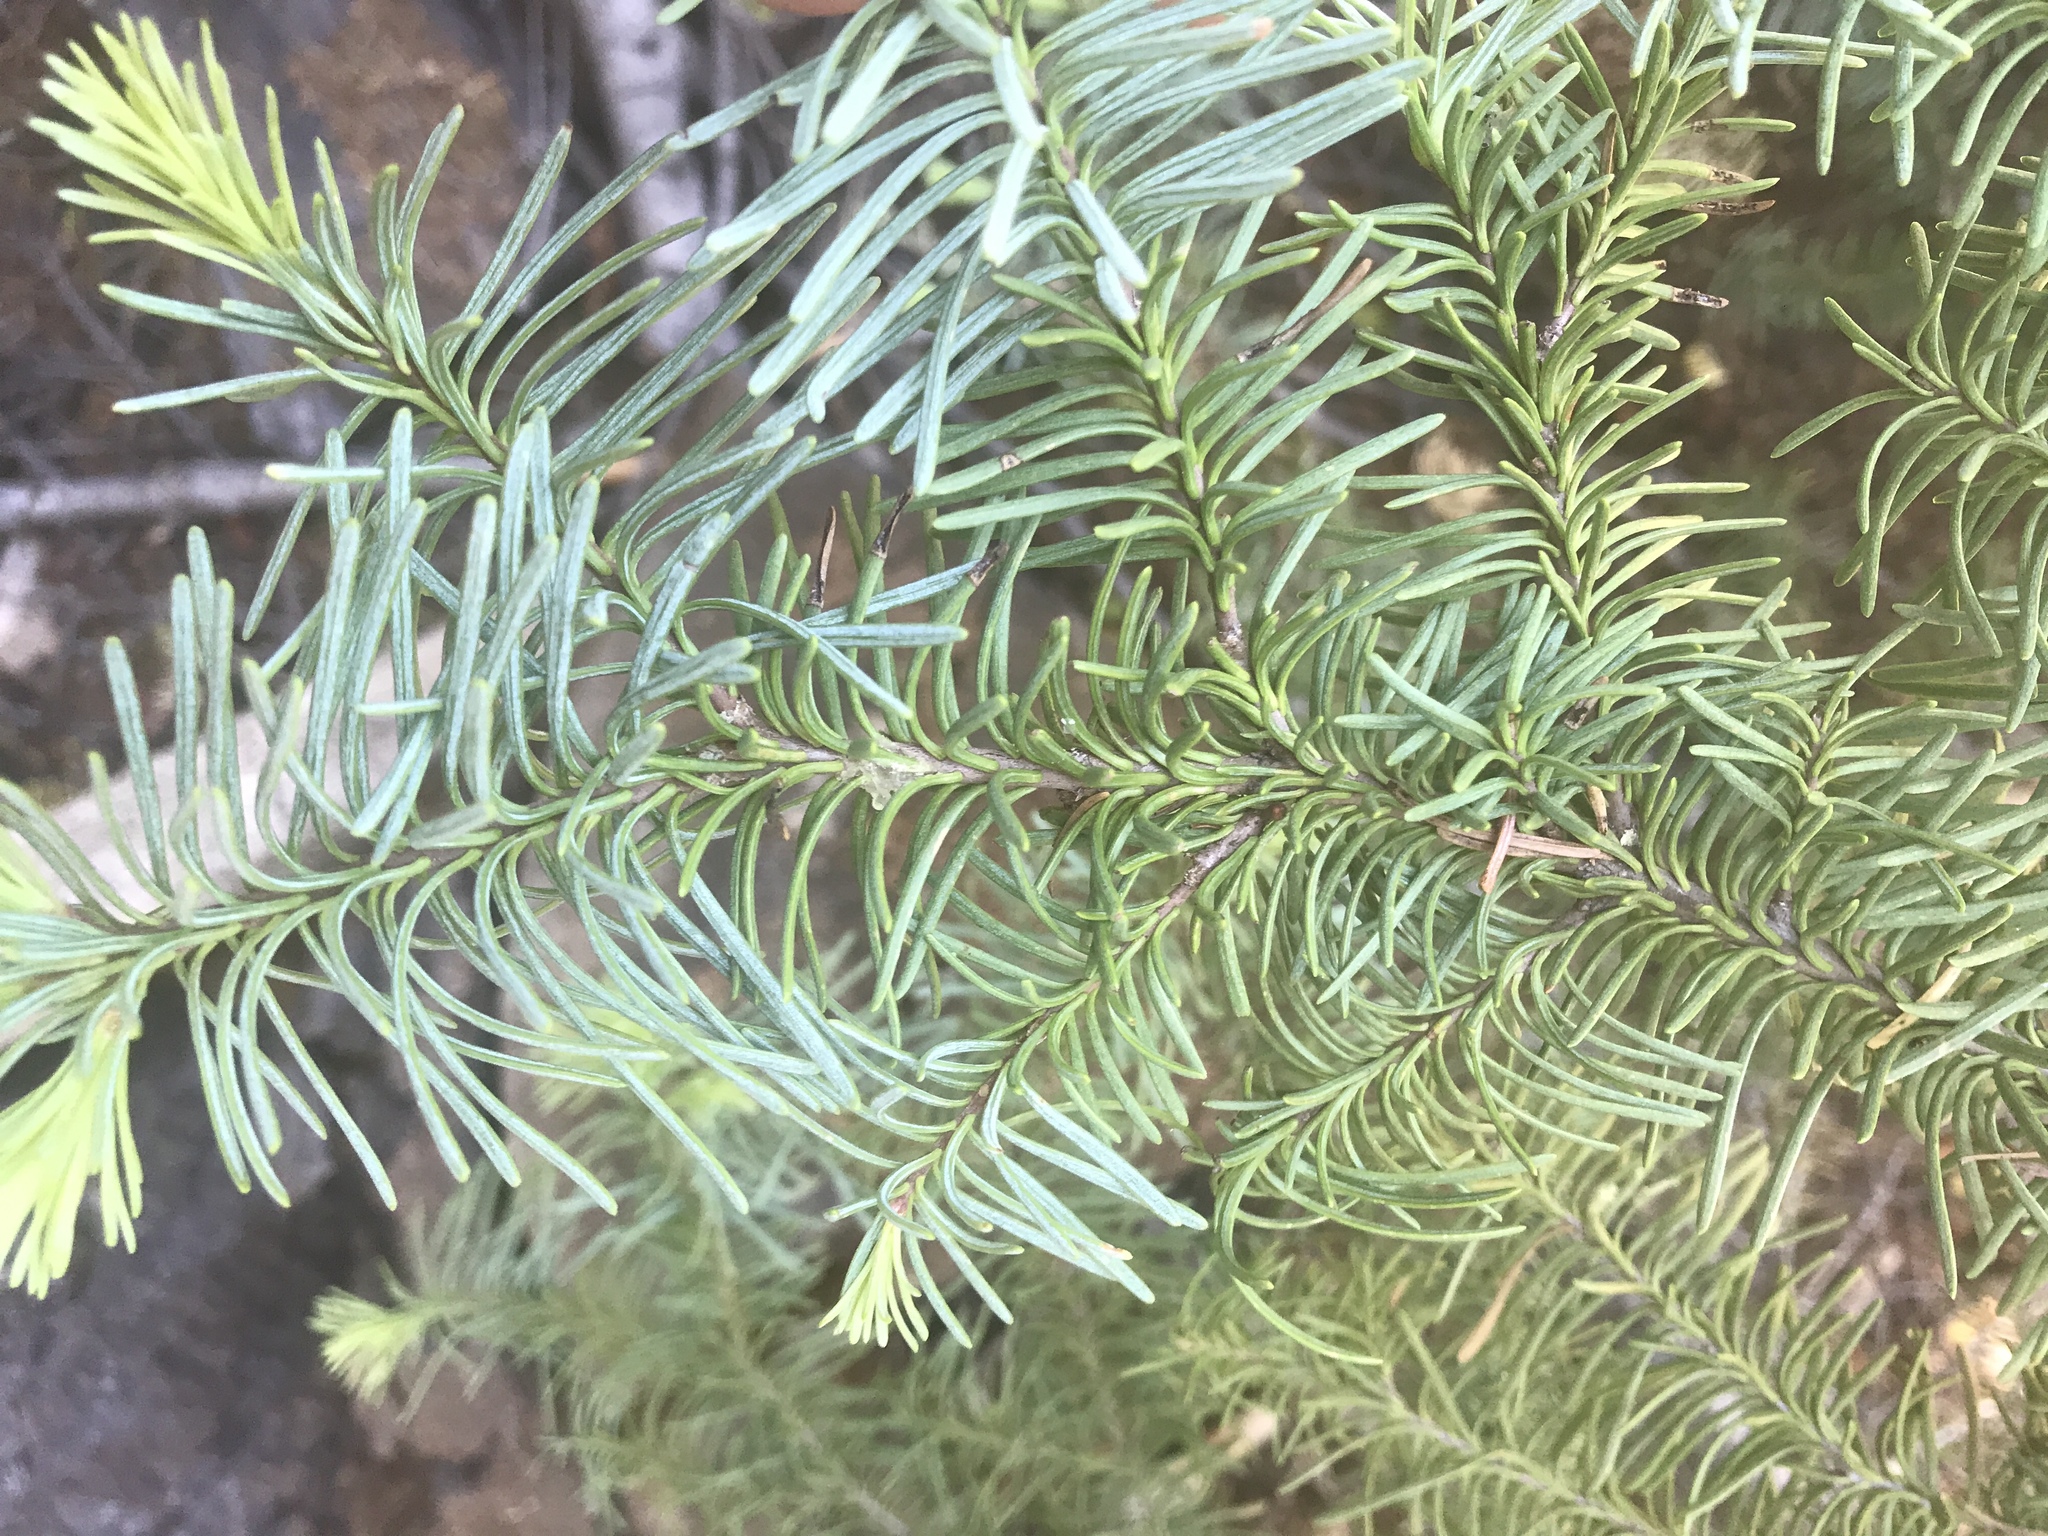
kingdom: Plantae
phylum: Tracheophyta
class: Pinopsida
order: Pinales
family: Pinaceae
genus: Abies
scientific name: Abies magnifica bis
